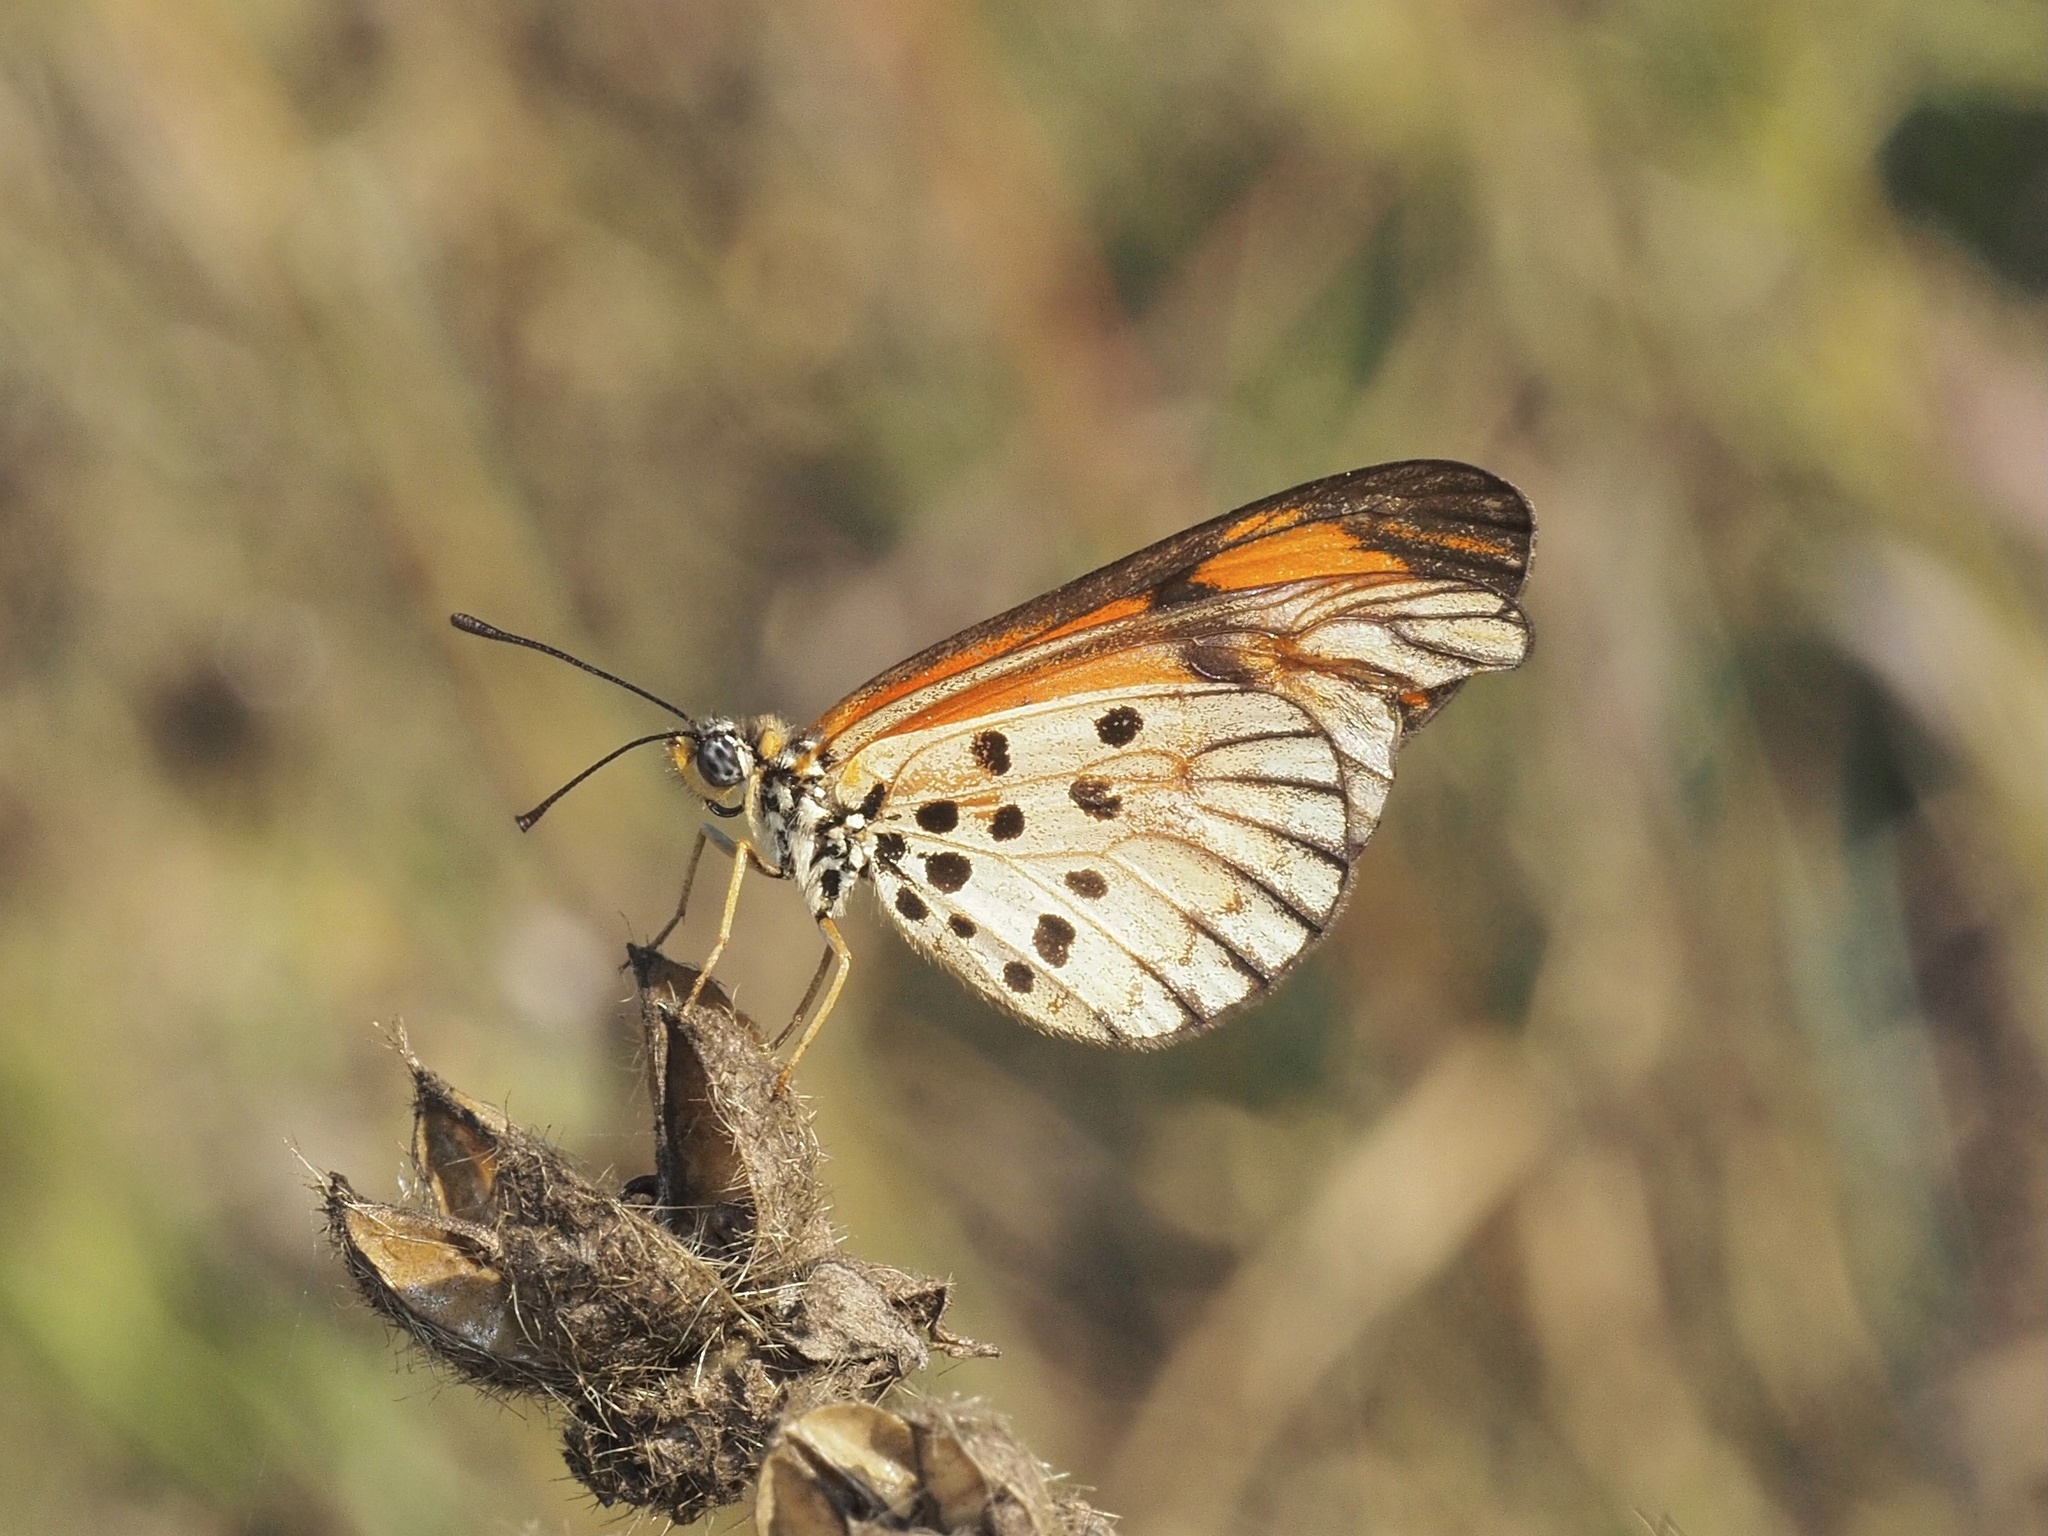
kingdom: Animalia
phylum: Arthropoda
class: Insecta
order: Lepidoptera
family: Nymphalidae
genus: Acraea
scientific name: Acraea Telchinia serena
